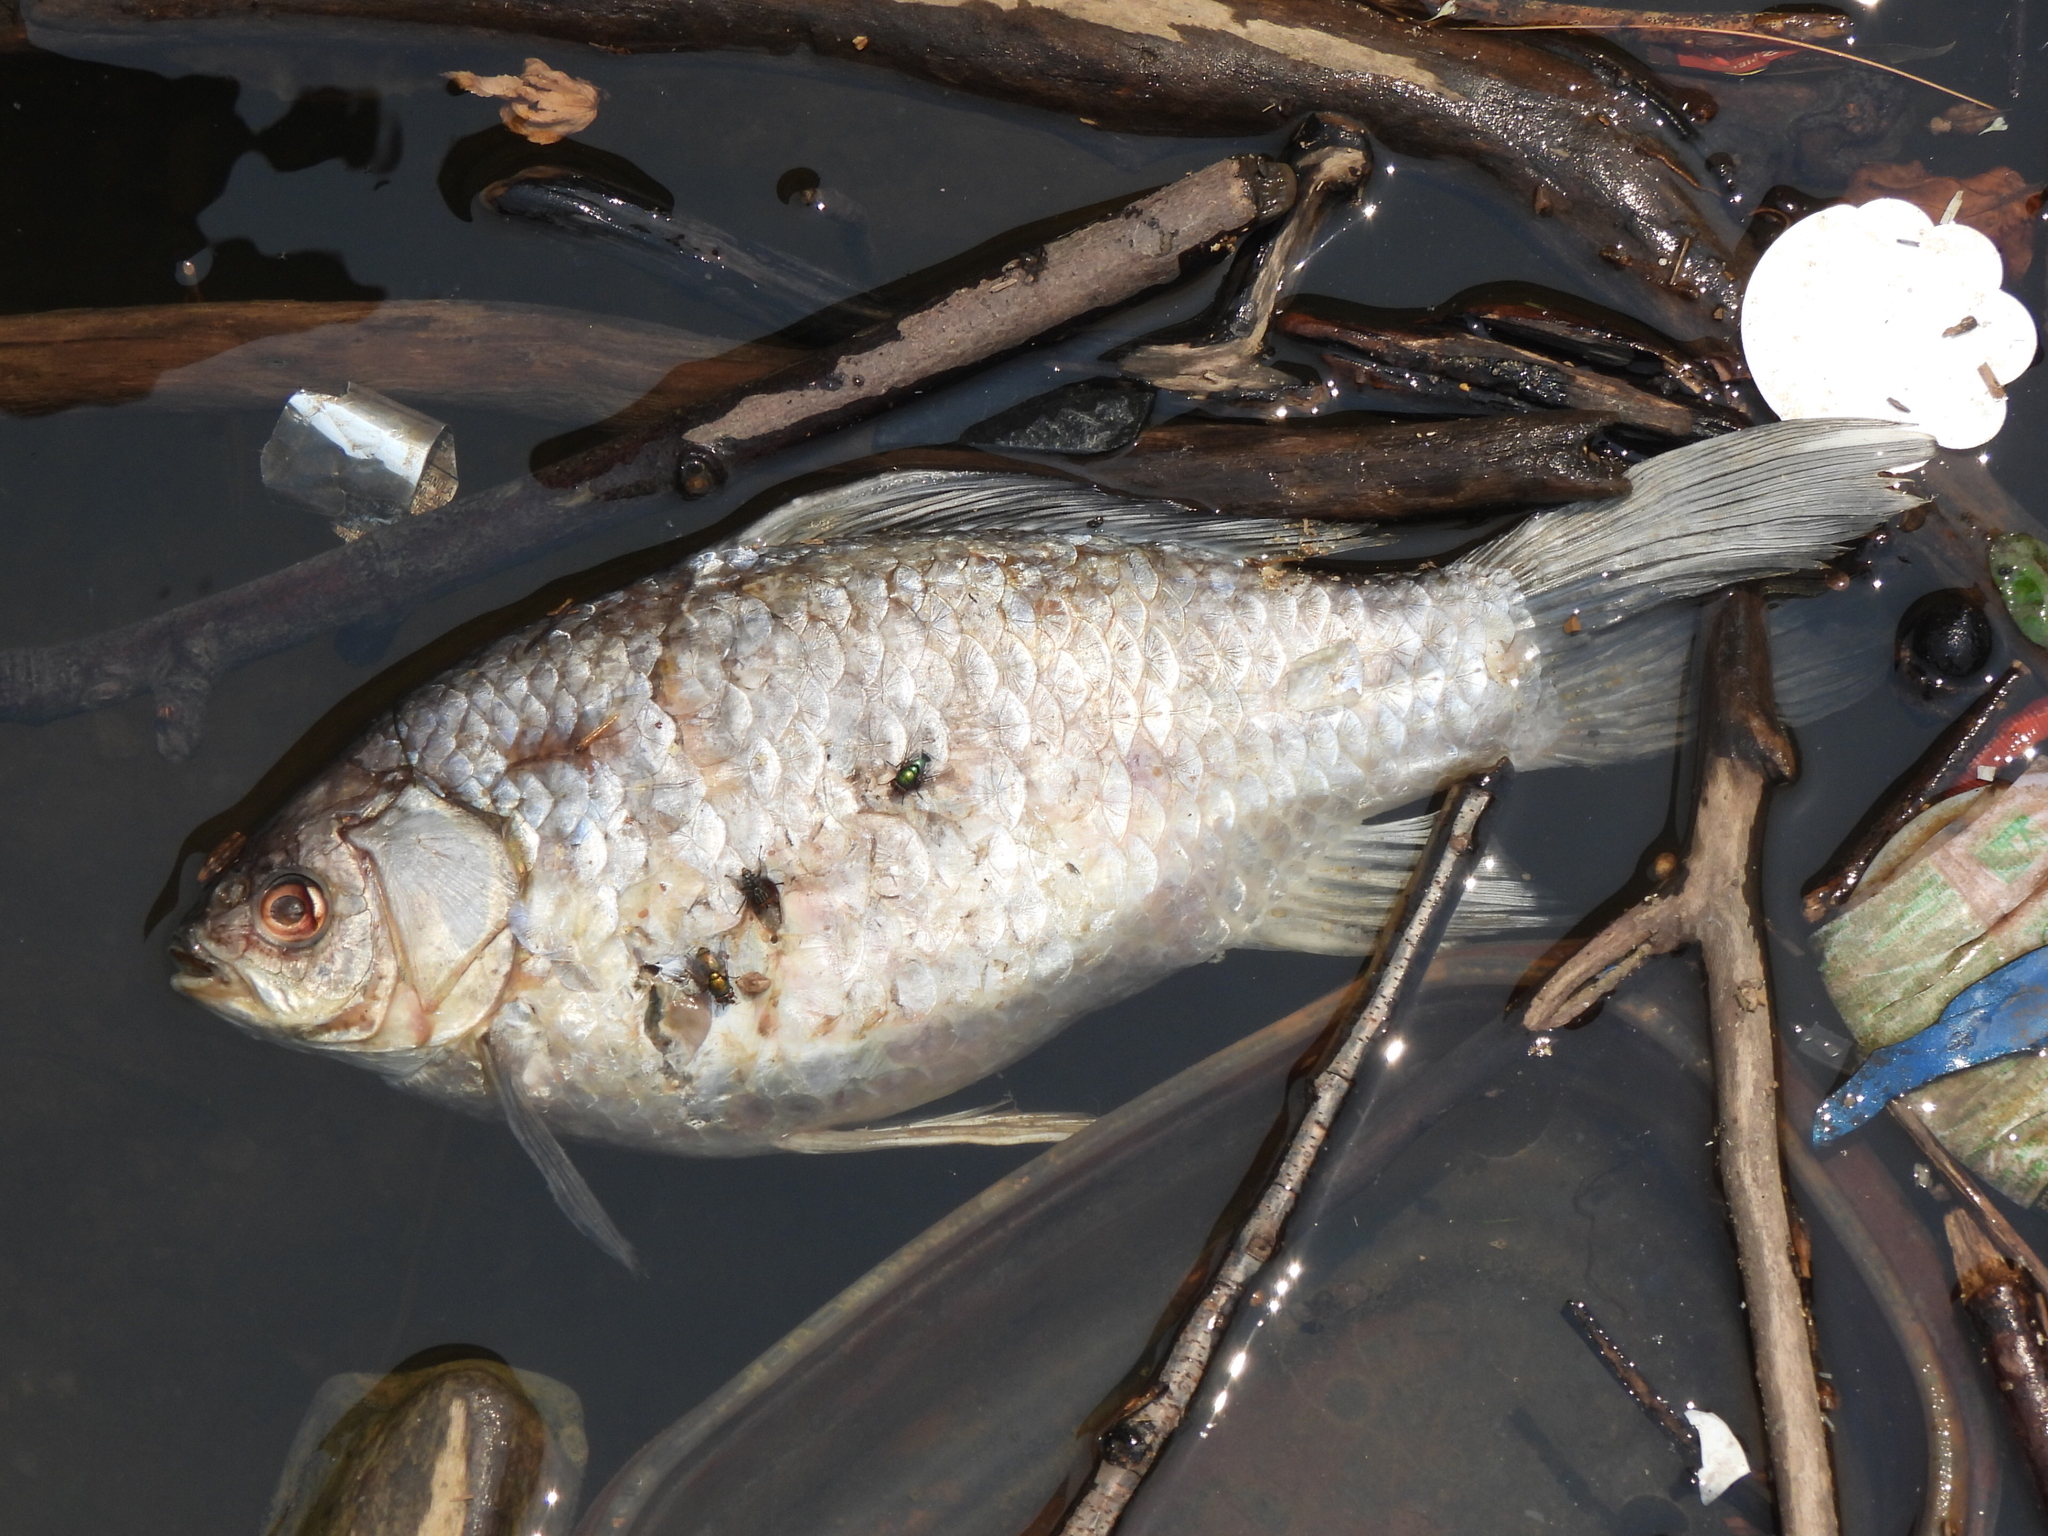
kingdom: Animalia
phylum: Chordata
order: Cypriniformes
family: Cyprinidae
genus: Carassius
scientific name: Carassius auratus
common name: Goldfish
